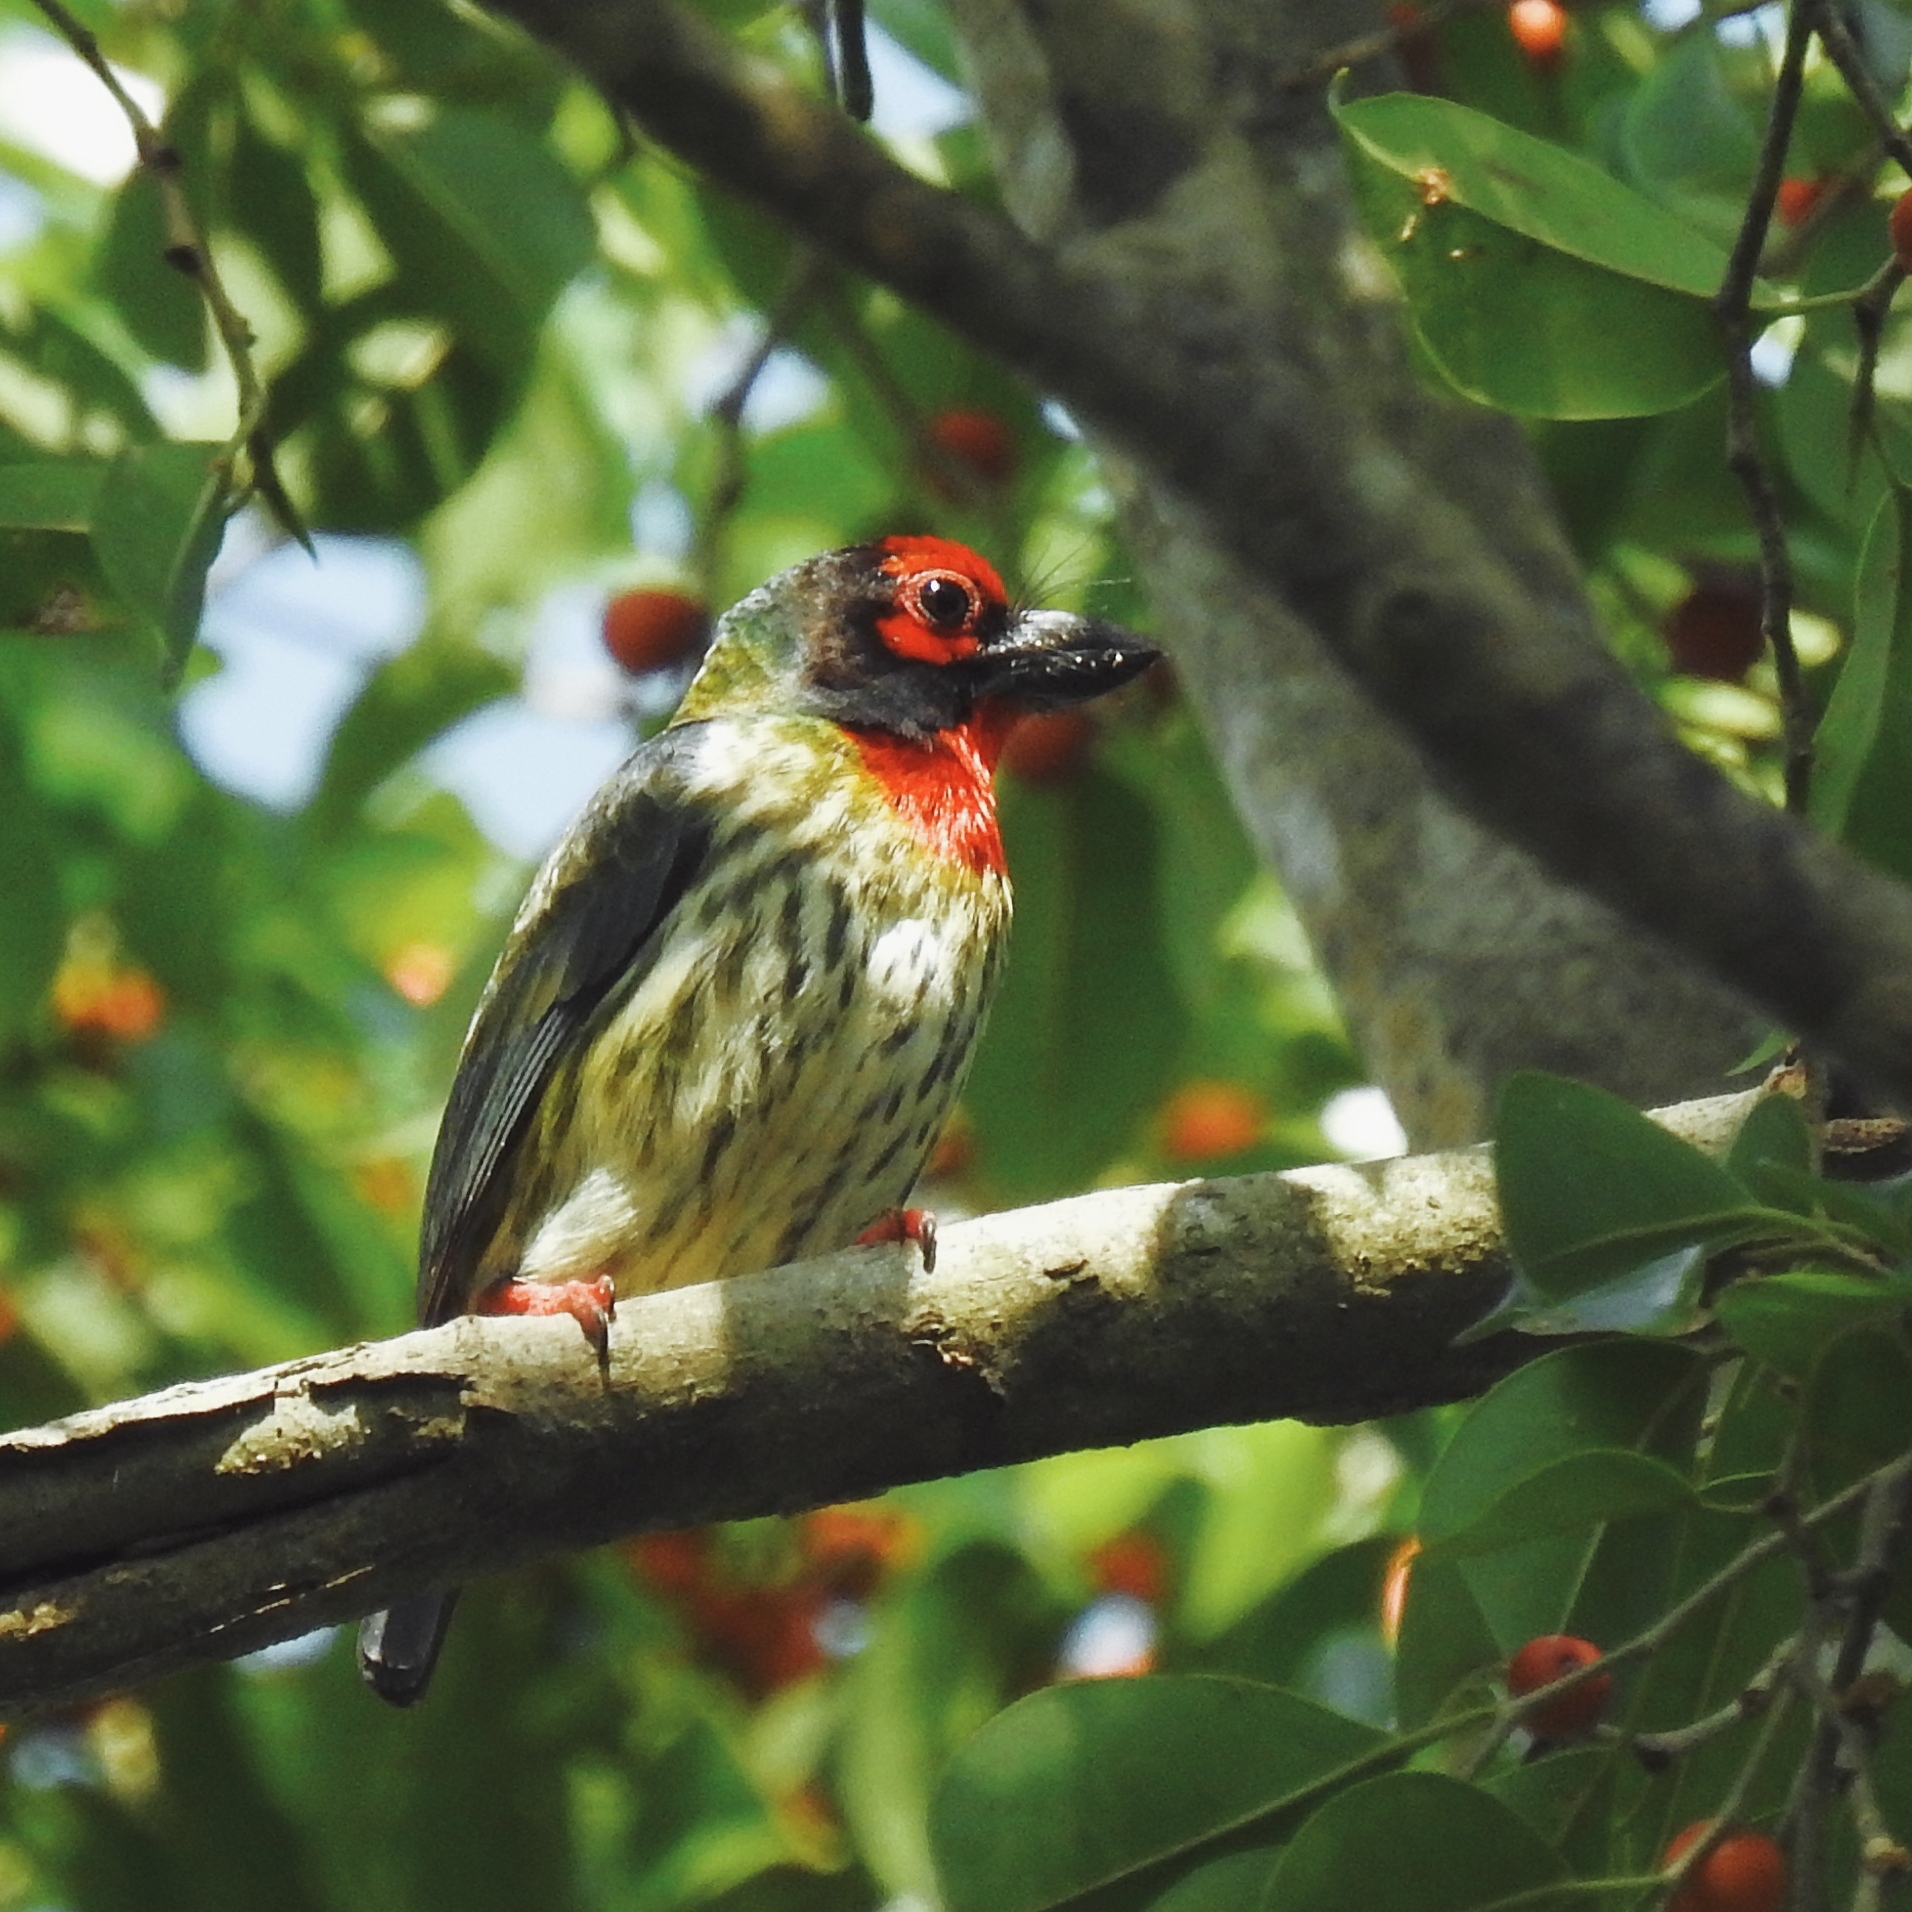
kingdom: Animalia
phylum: Chordata
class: Aves
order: Piciformes
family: Megalaimidae
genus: Psilopogon
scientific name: Psilopogon haemacephalus
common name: Coppersmith barbet
